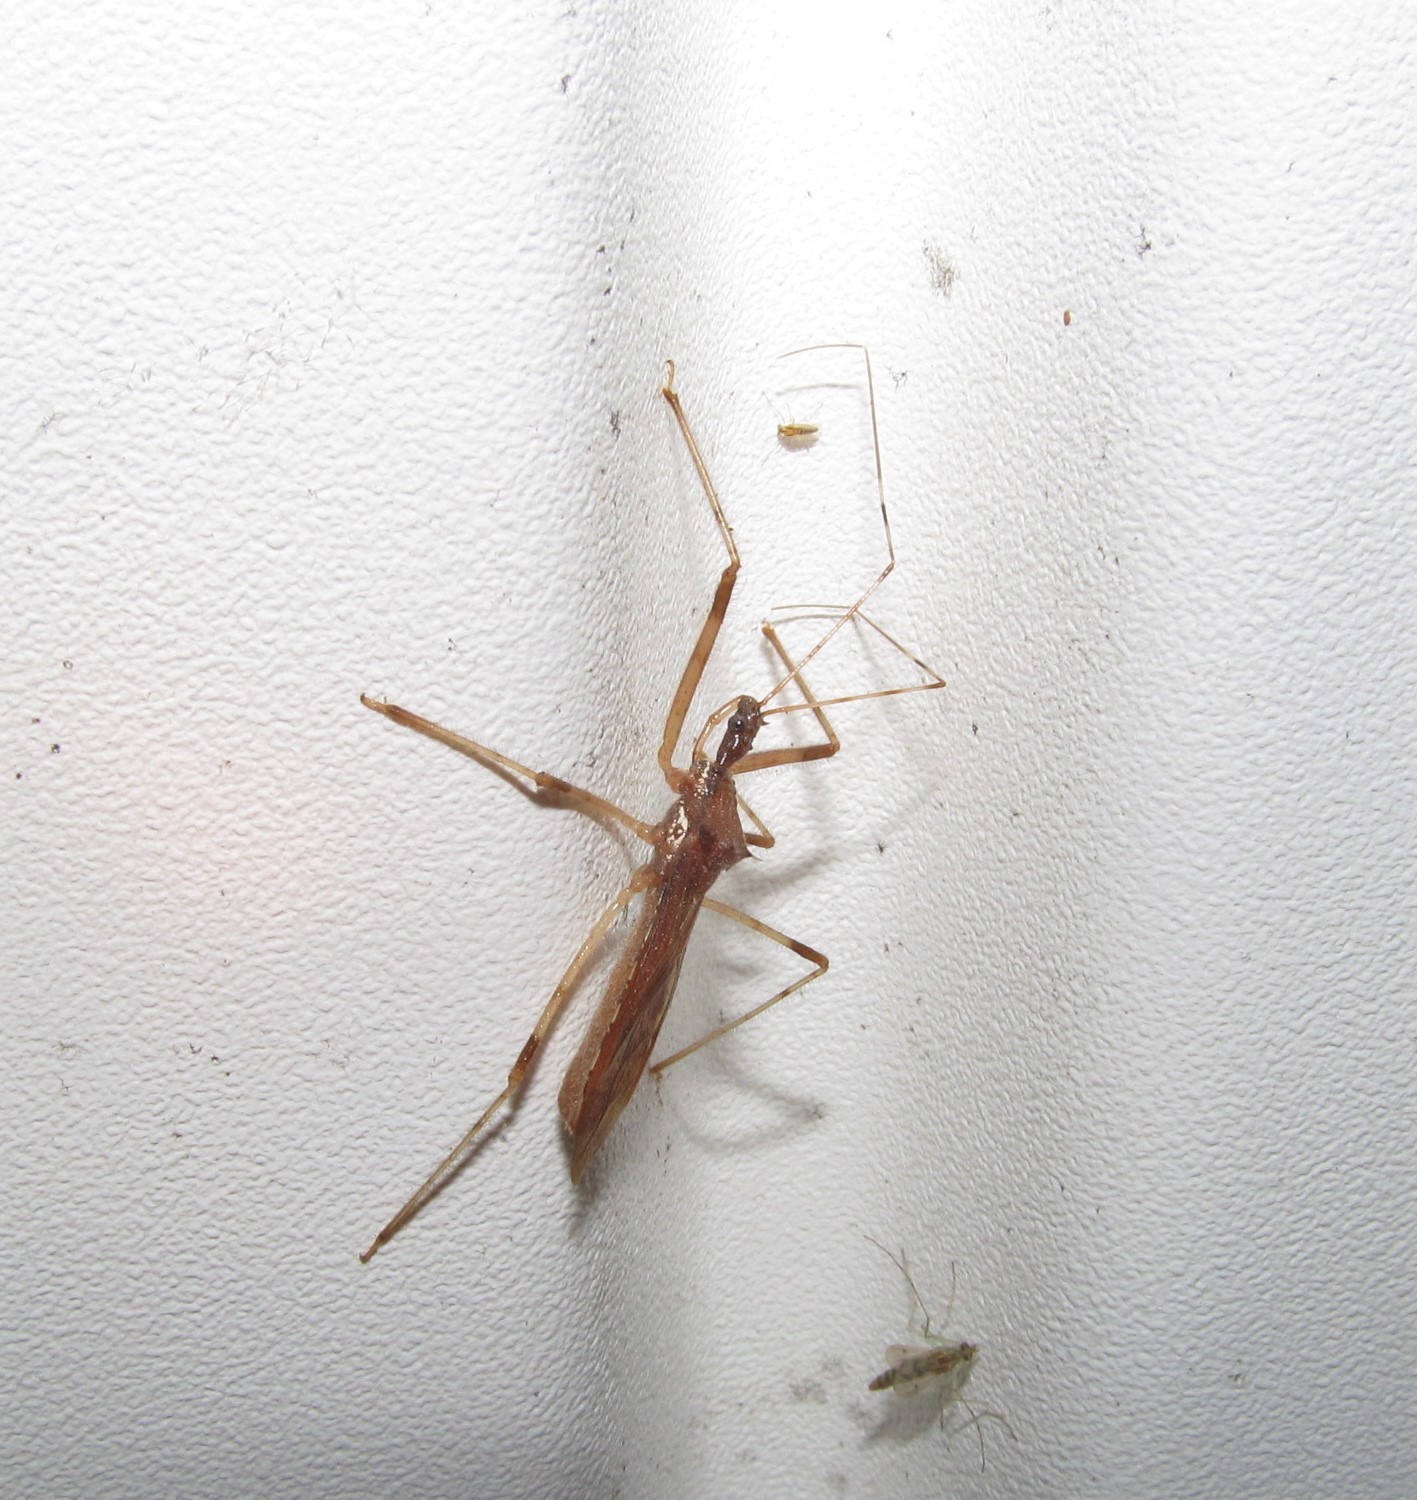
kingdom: Animalia
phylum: Arthropoda
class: Insecta
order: Hemiptera
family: Reduviidae
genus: Rocconota
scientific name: Rocconota annulicornis
